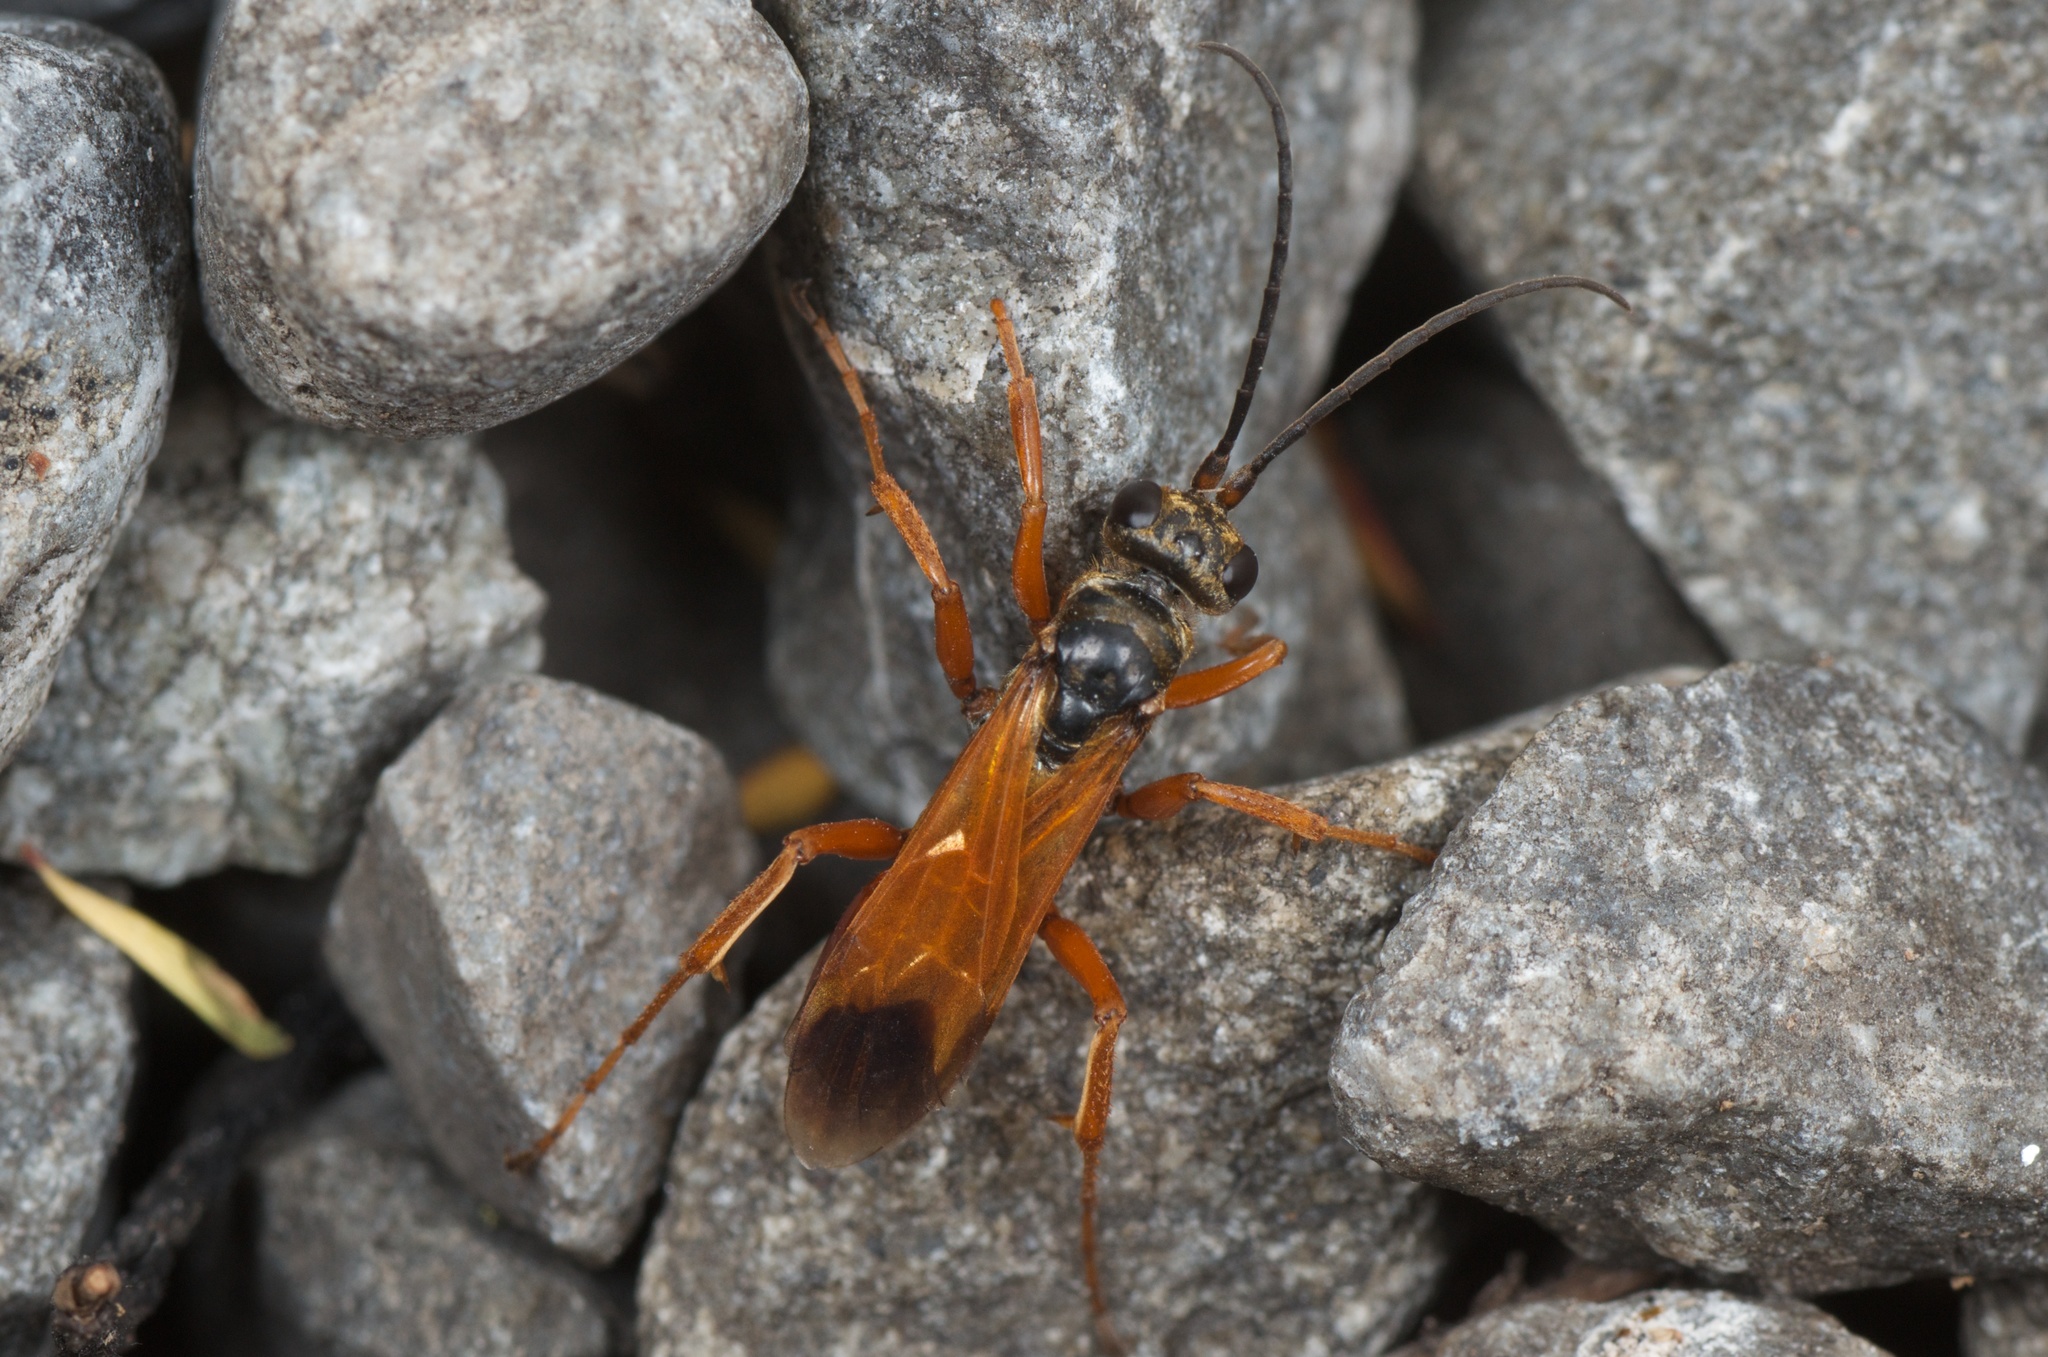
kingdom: Animalia
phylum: Arthropoda
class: Insecta
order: Hymenoptera
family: Pompilidae
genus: Priocnemis
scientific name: Priocnemis conformis
